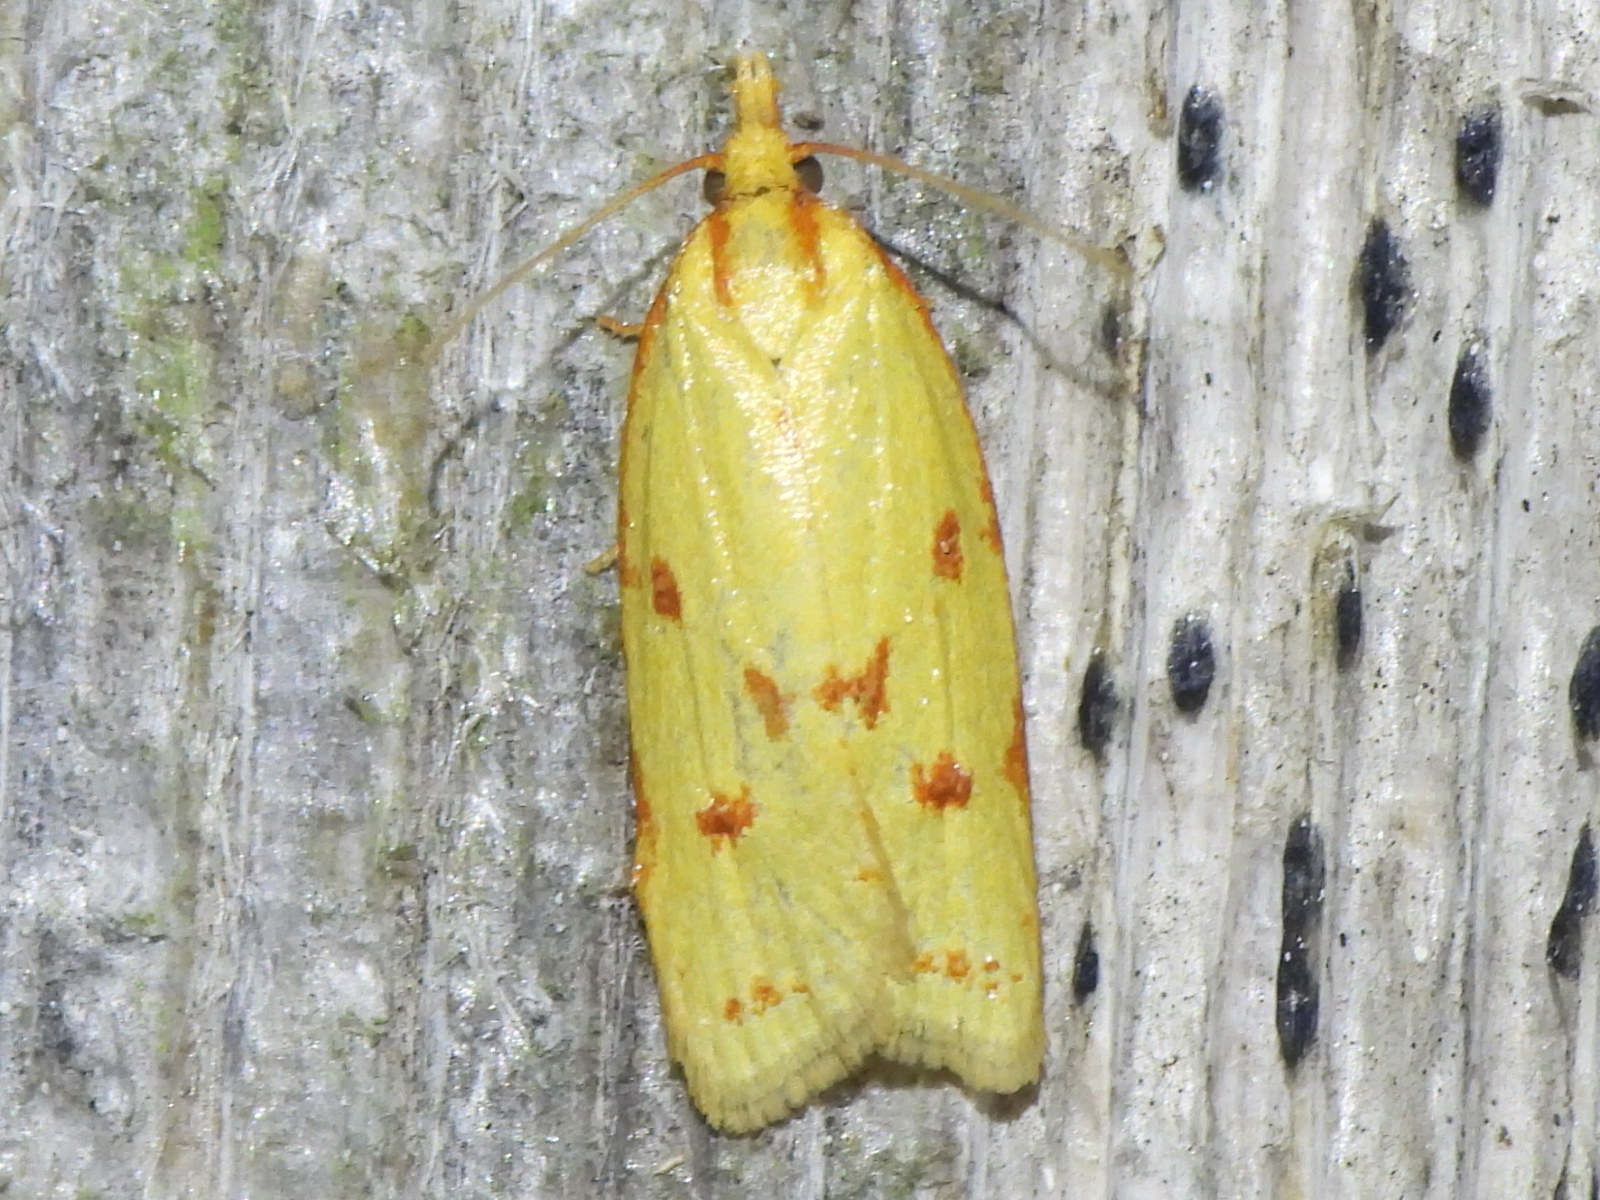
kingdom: Animalia
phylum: Arthropoda
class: Insecta
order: Lepidoptera
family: Tortricidae
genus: Sparganothis
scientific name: Sparganothis sulfureana
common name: Sparganothis fruitworm moth
